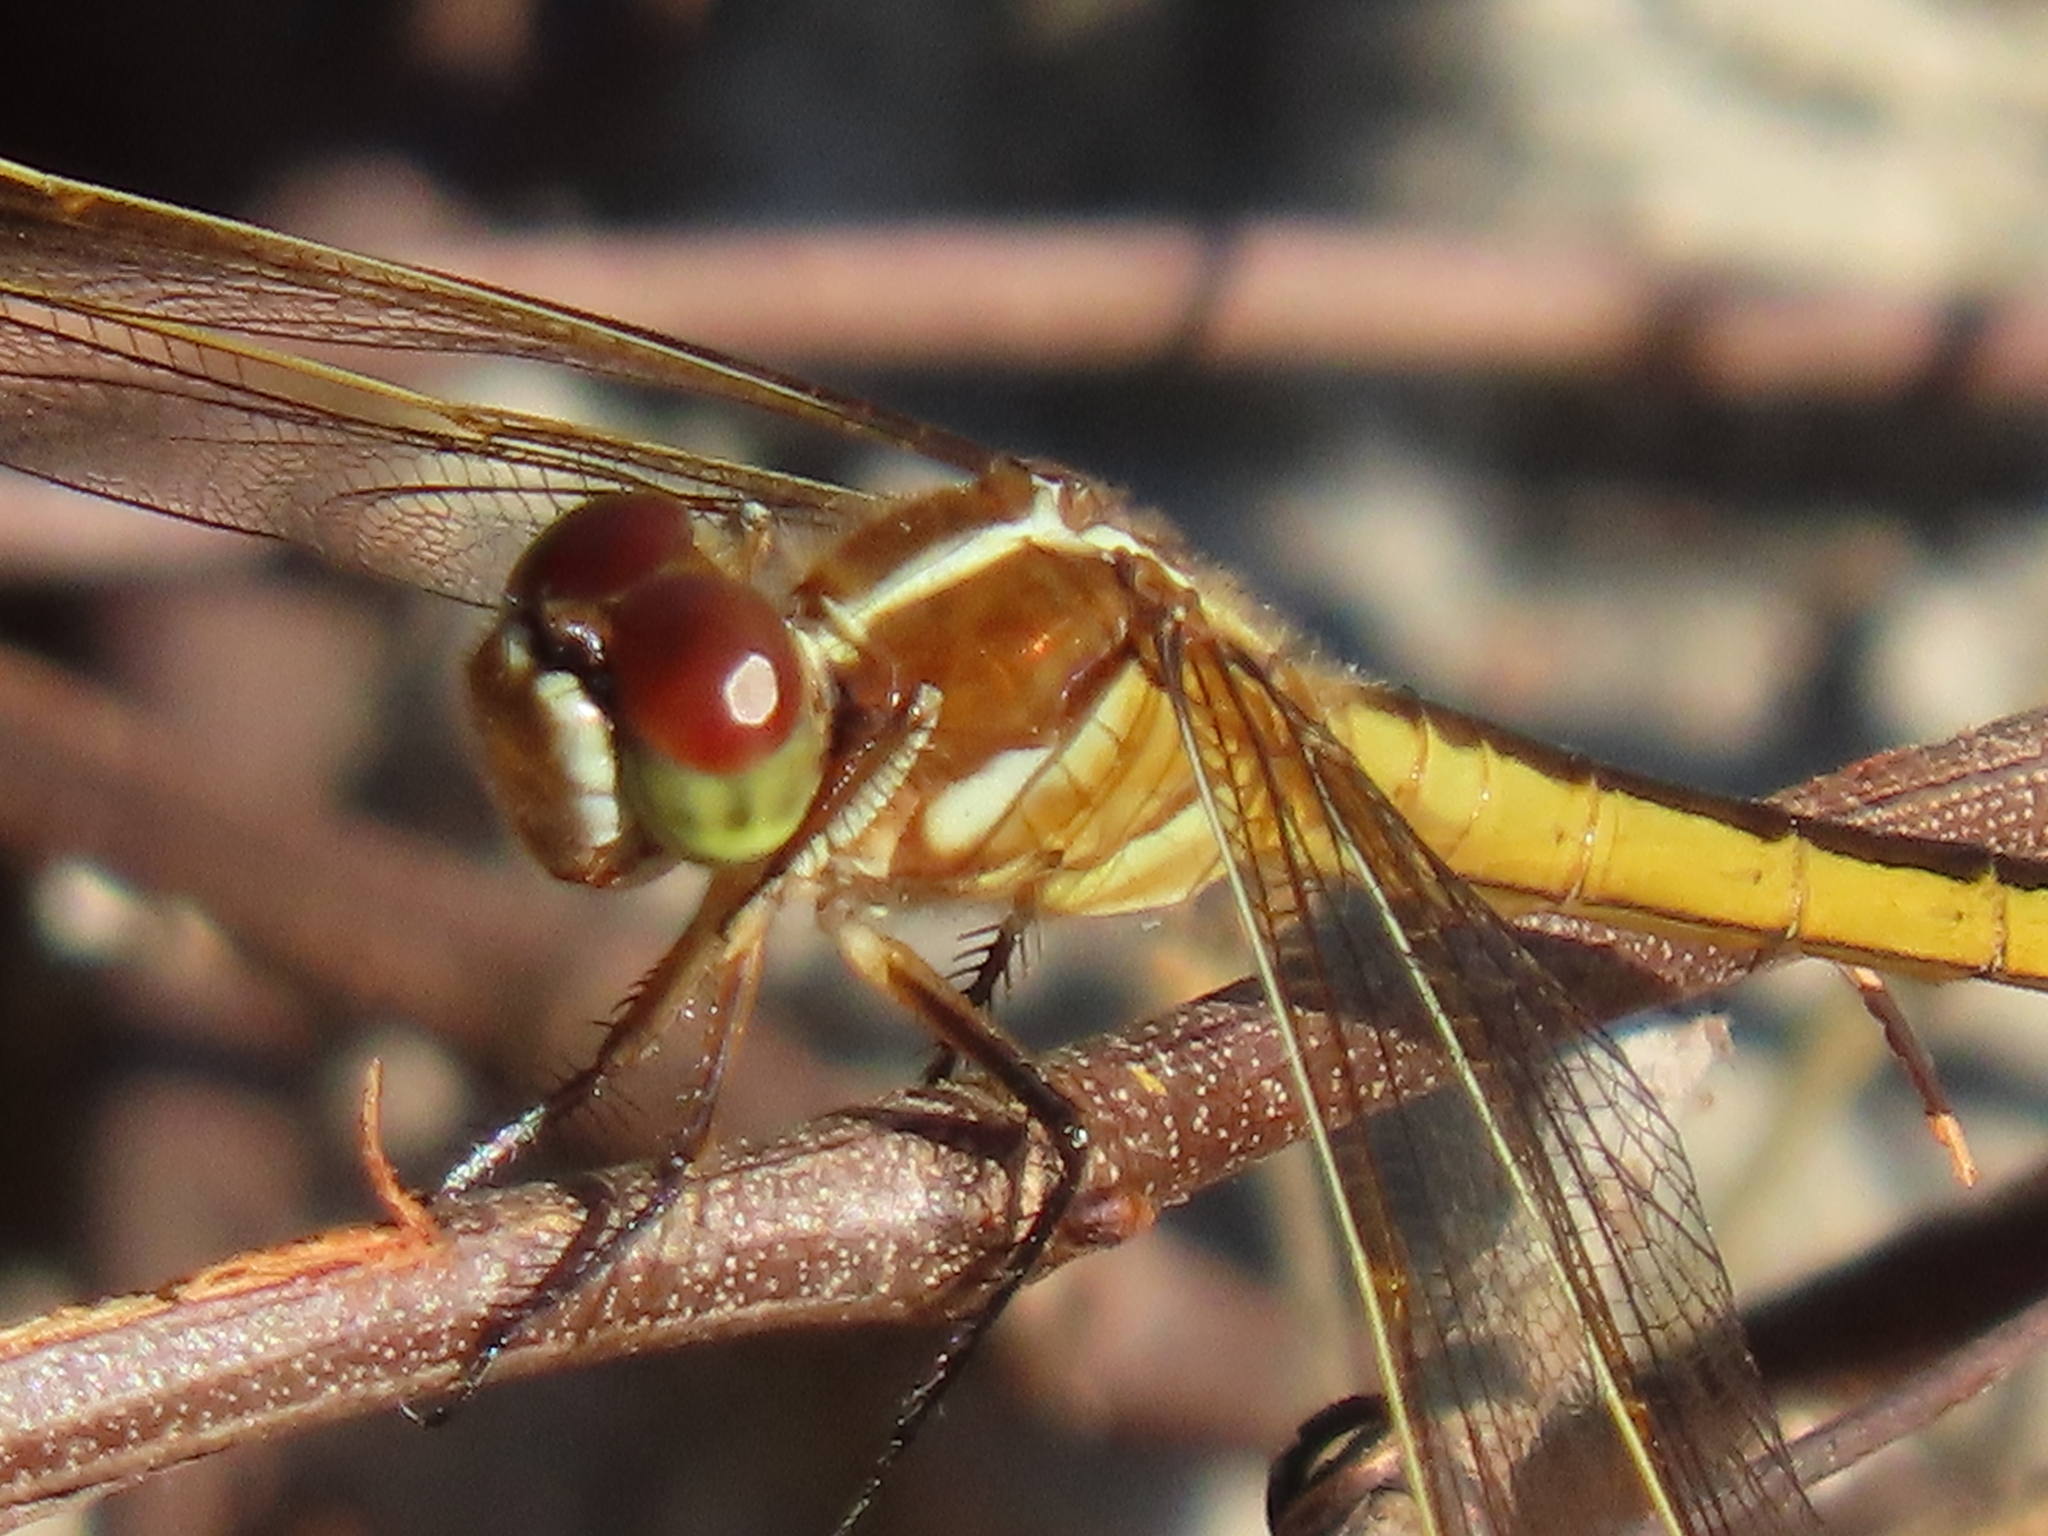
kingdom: Animalia
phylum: Arthropoda
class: Insecta
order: Odonata
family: Libellulidae
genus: Libellula
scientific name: Libellula auripennis
